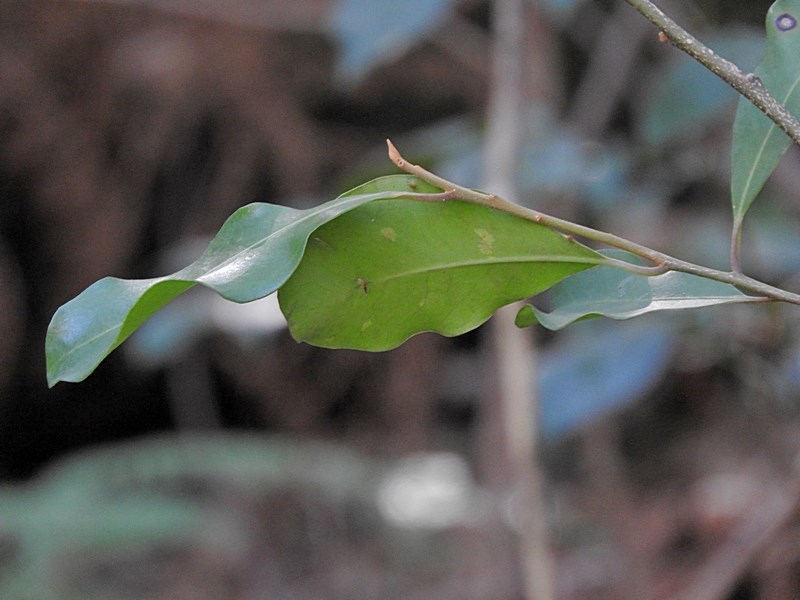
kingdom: Plantae
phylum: Tracheophyta
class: Magnoliopsida
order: Ericales
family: Primulaceae
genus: Myrsine
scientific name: Myrsine howittiana
